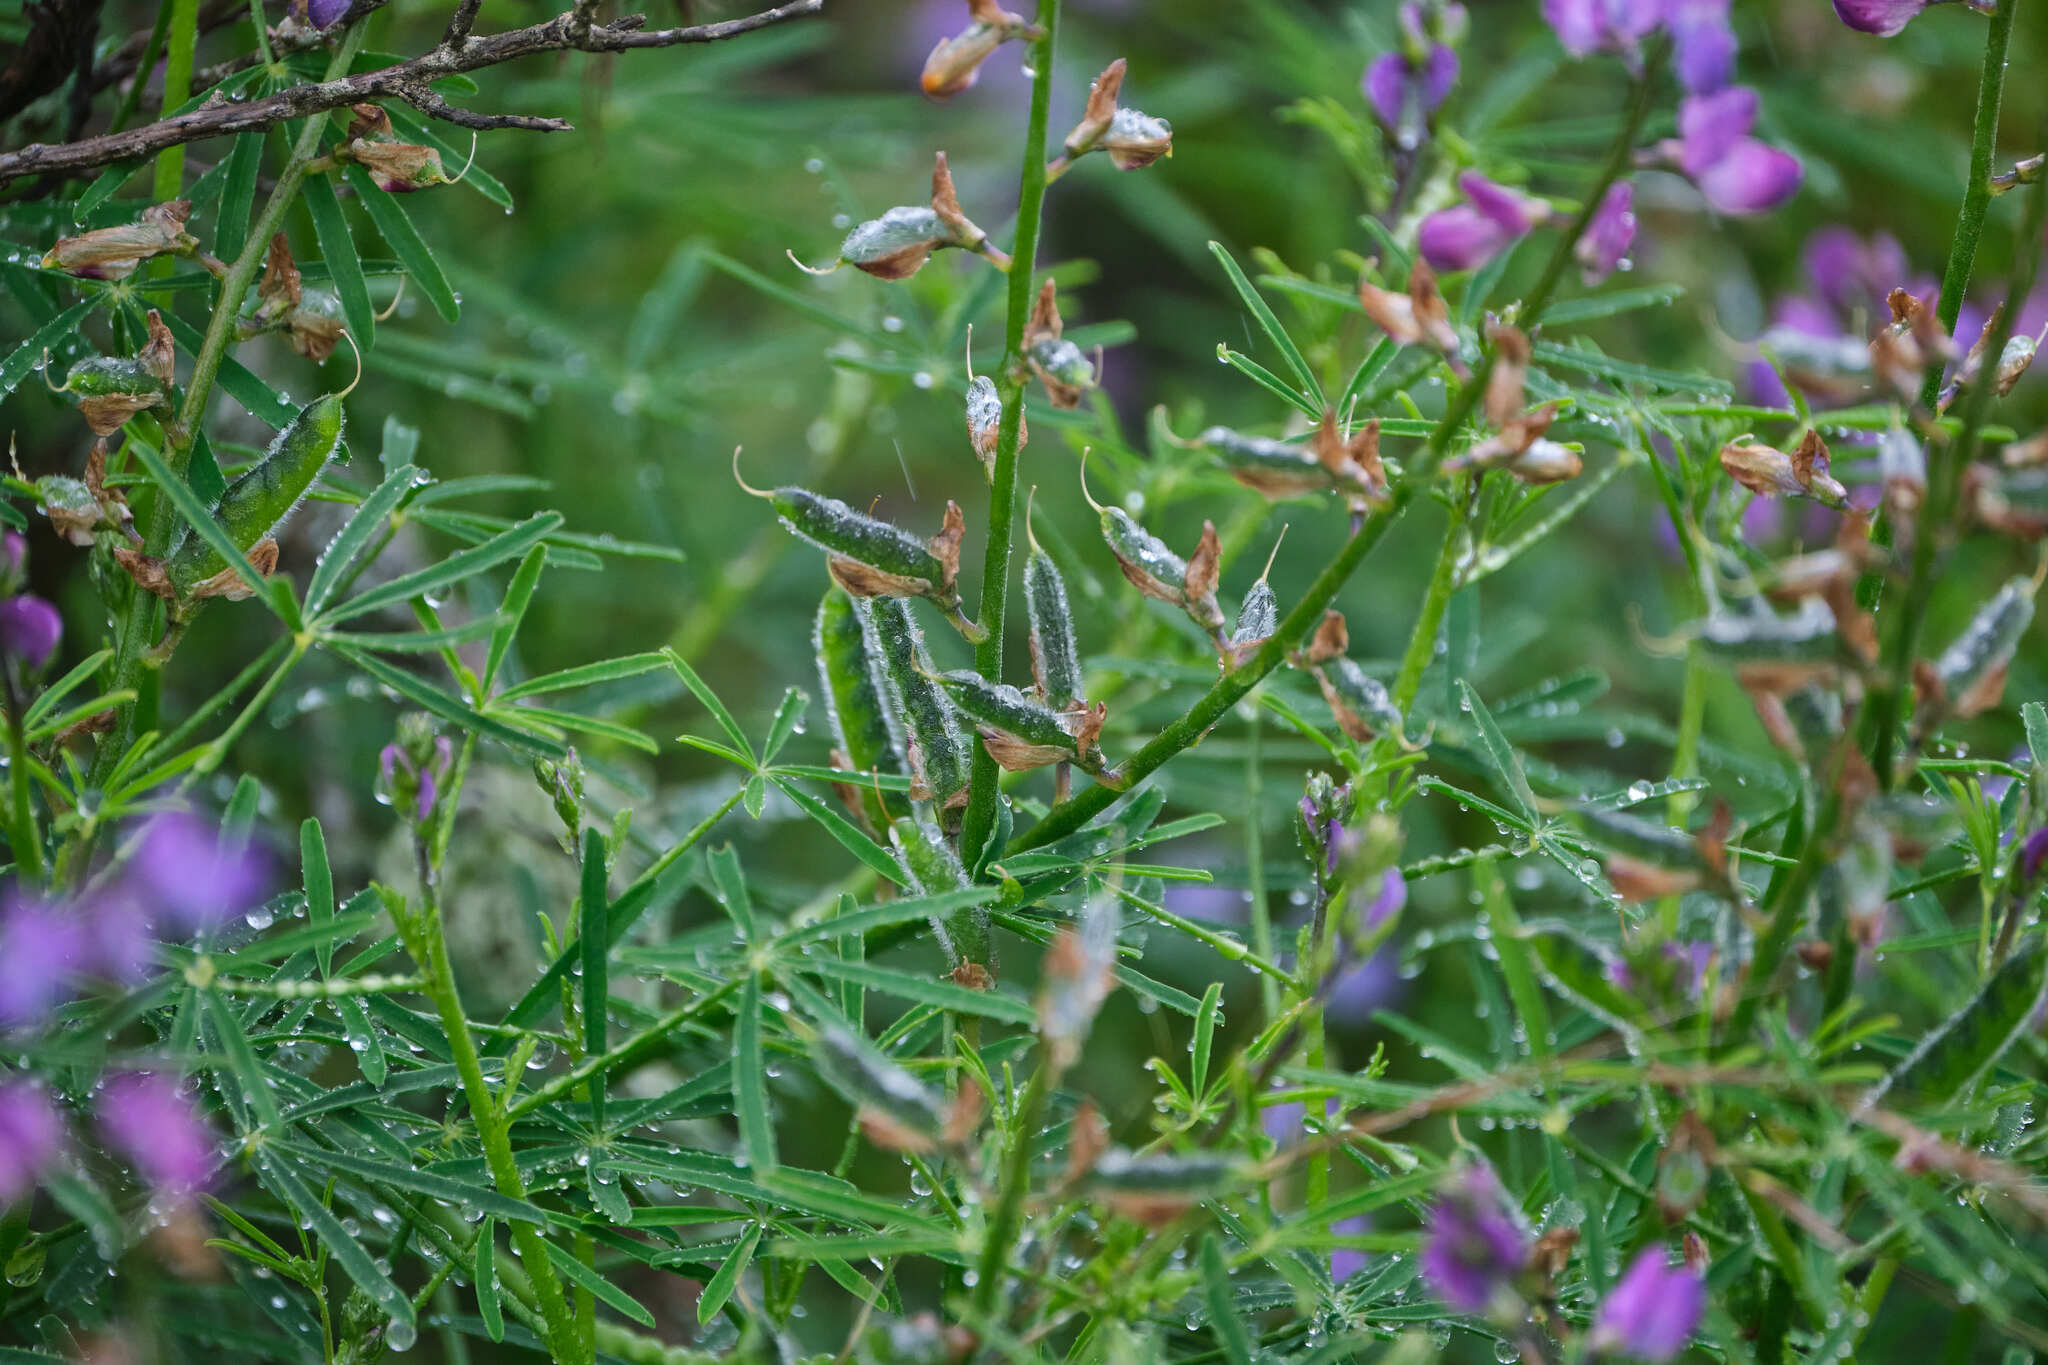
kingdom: Plantae
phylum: Tracheophyta
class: Magnoliopsida
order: Fabales
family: Fabaceae
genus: Lupinus
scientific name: Lupinus truncatus
